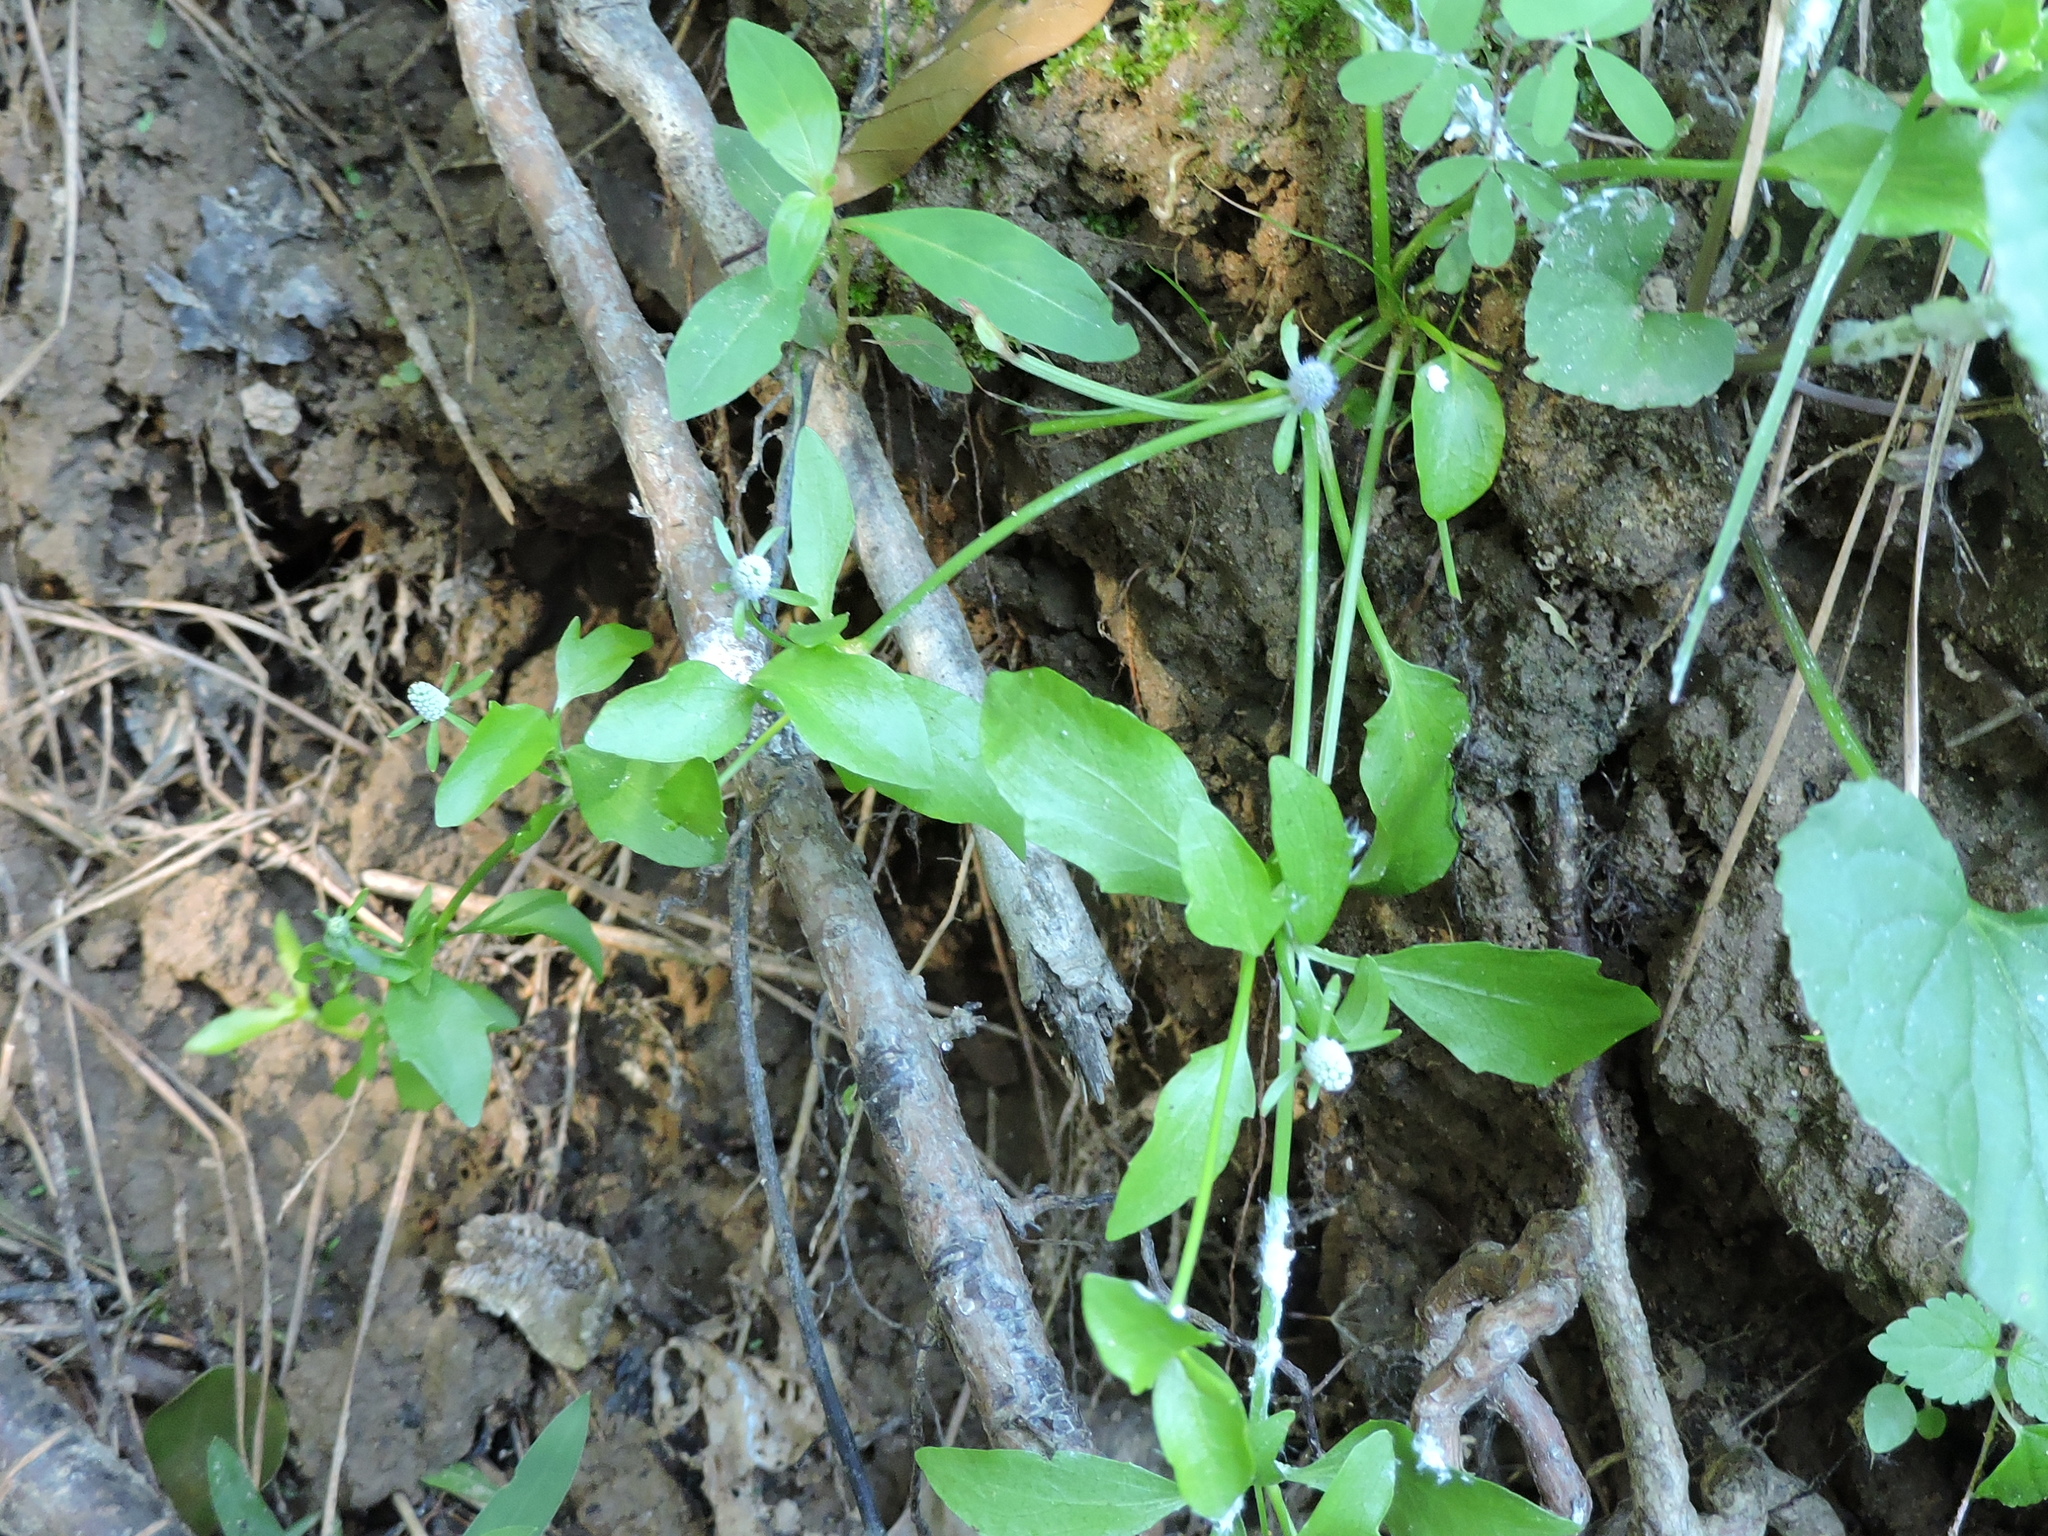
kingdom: Plantae
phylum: Tracheophyta
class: Magnoliopsida
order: Apiales
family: Apiaceae
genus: Eryngium
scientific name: Eryngium prostratum
